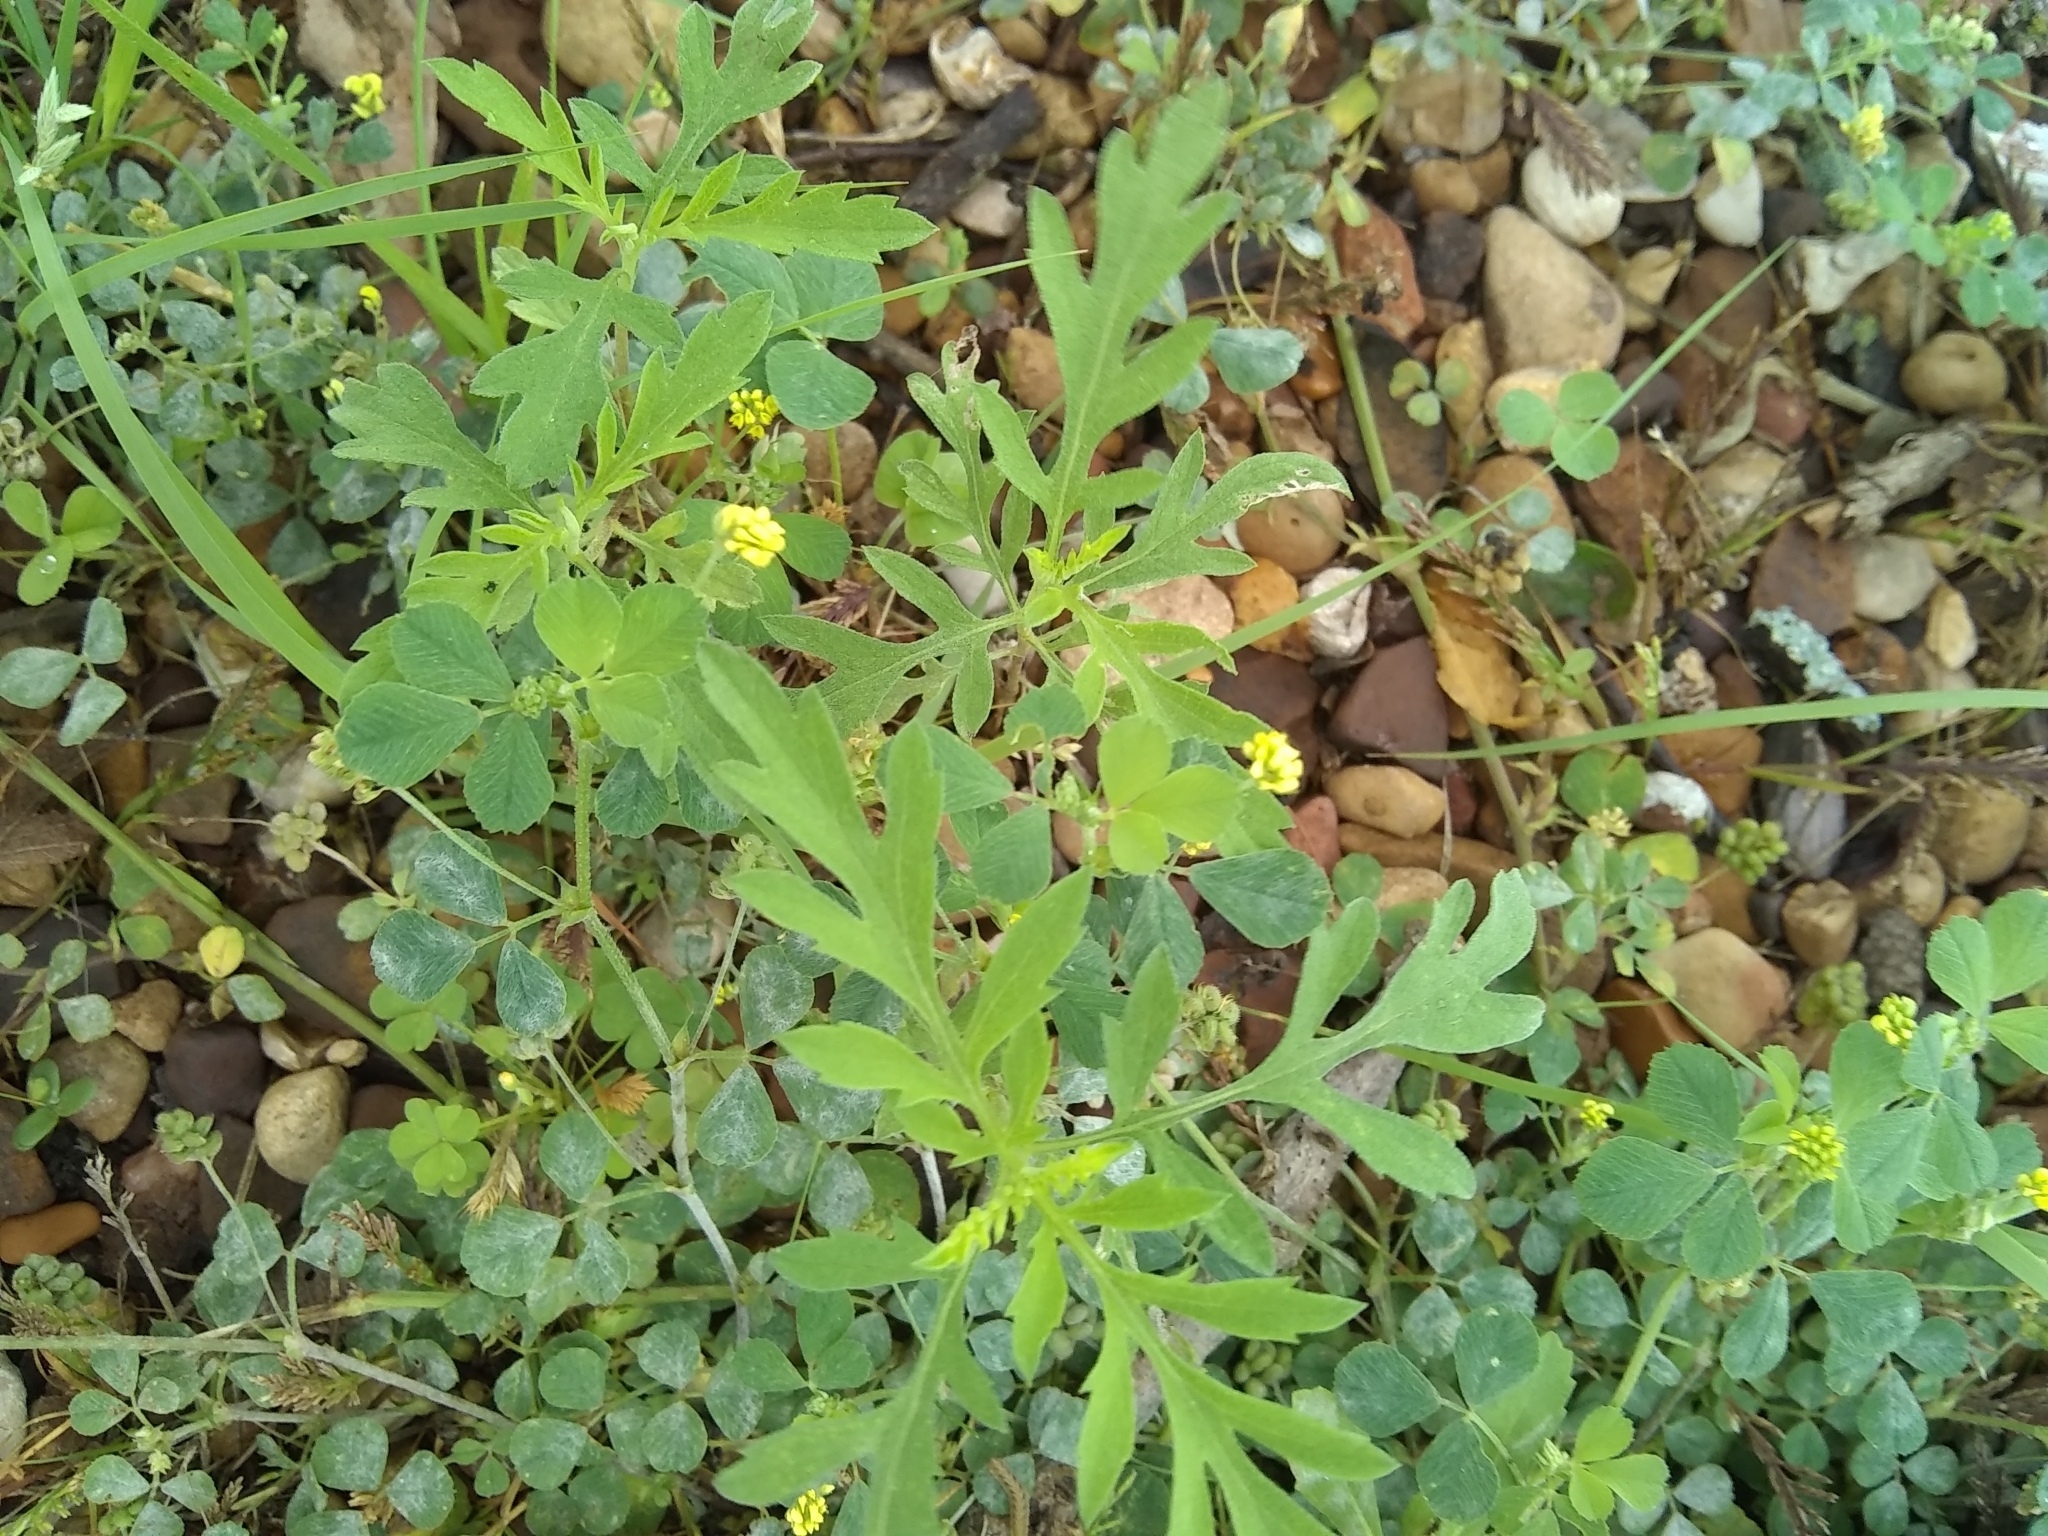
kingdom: Plantae
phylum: Tracheophyta
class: Magnoliopsida
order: Asterales
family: Asteraceae
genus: Ambrosia
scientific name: Ambrosia psilostachya
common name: Perennial ragweed
